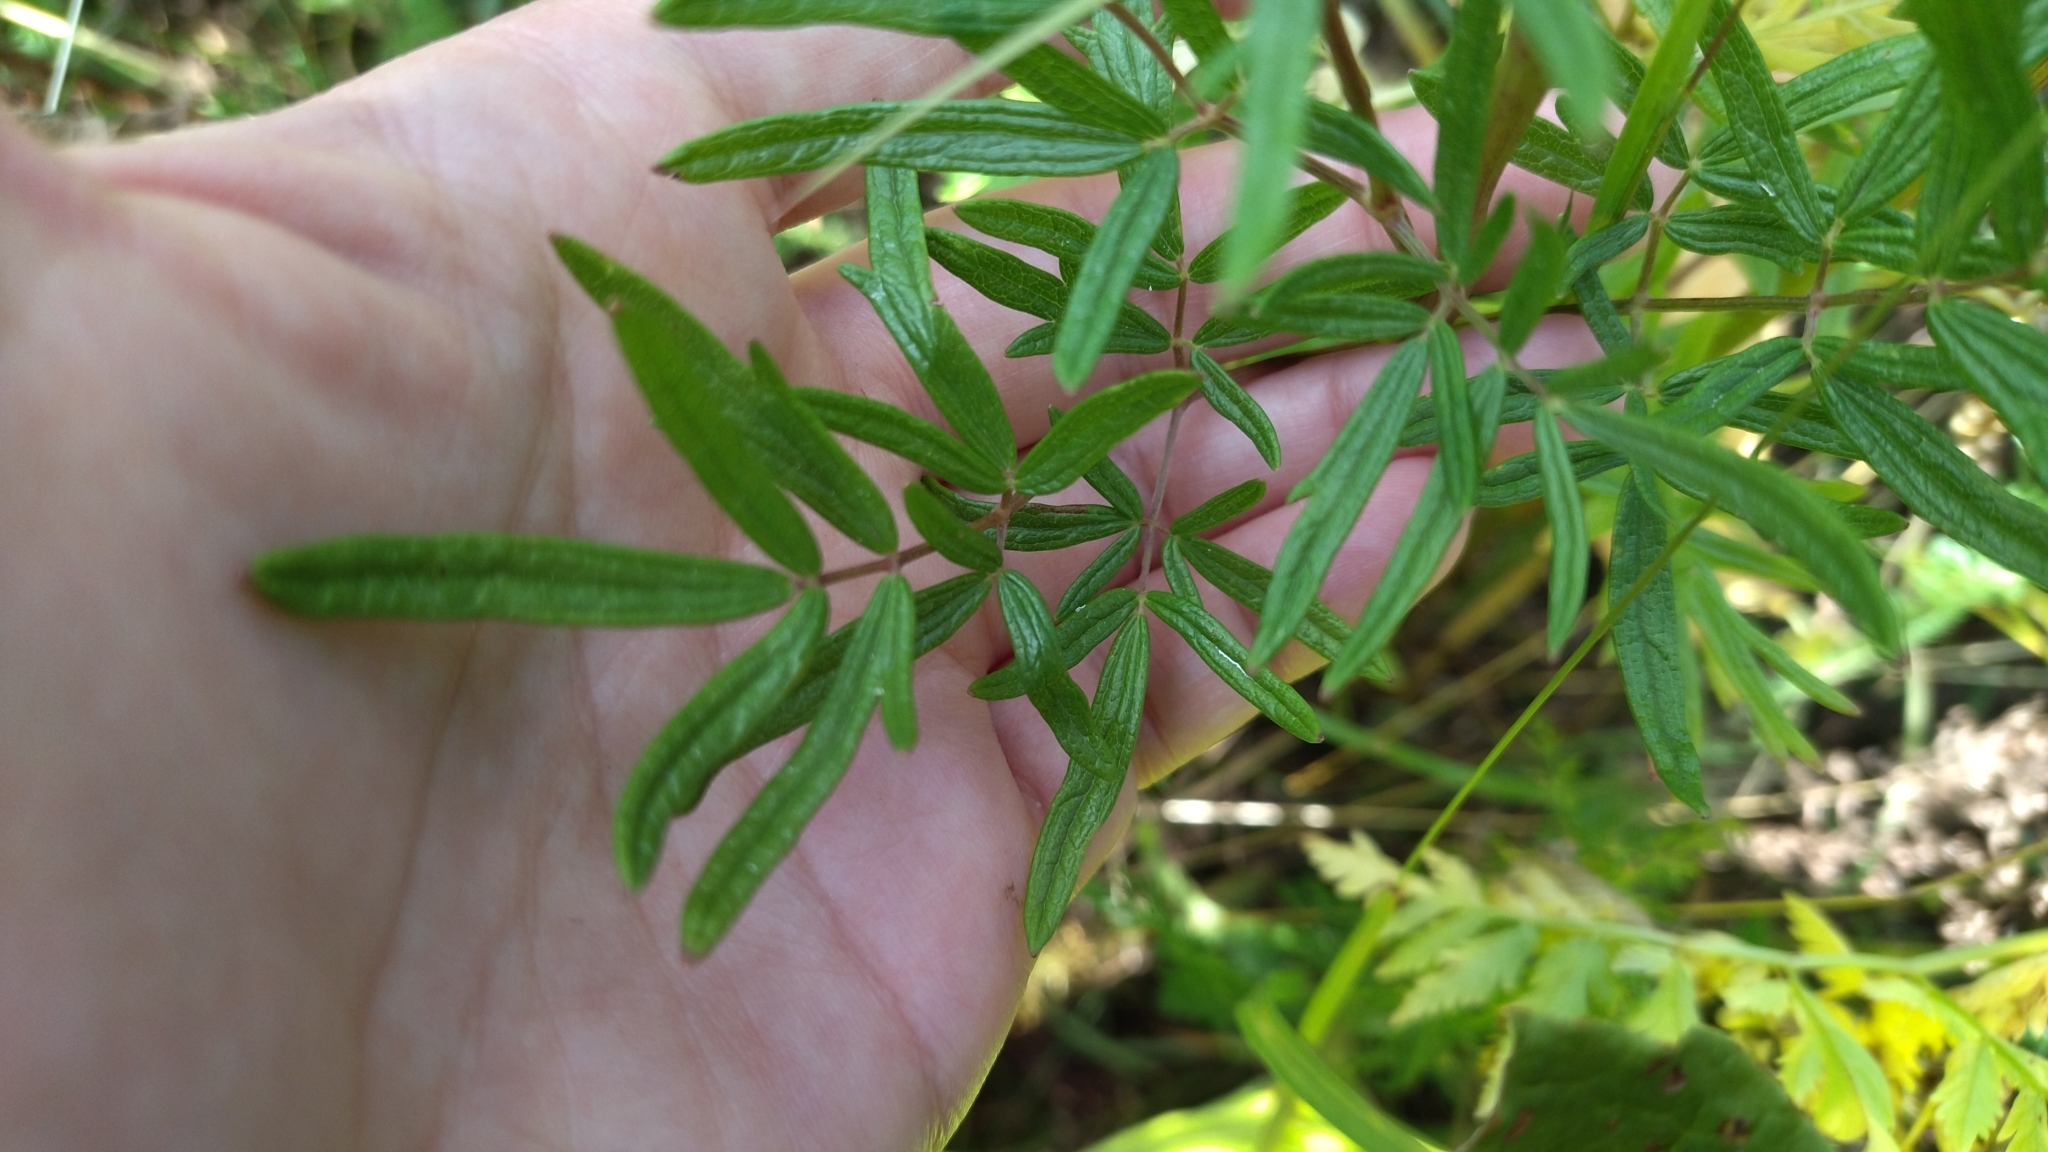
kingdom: Plantae
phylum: Tracheophyta
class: Magnoliopsida
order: Ranunculales
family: Ranunculaceae
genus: Thalictrum
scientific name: Thalictrum lucidum
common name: Shining meadow-rue
